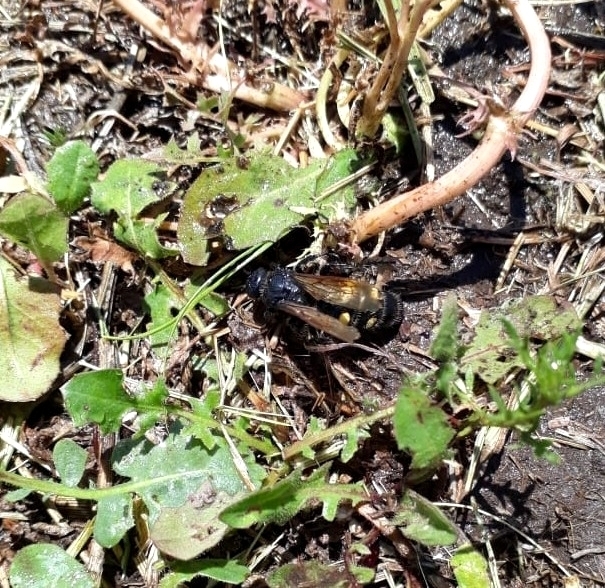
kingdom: Animalia
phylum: Arthropoda
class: Insecta
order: Hymenoptera
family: Scoliidae
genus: Pygodasis
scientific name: Pygodasis
